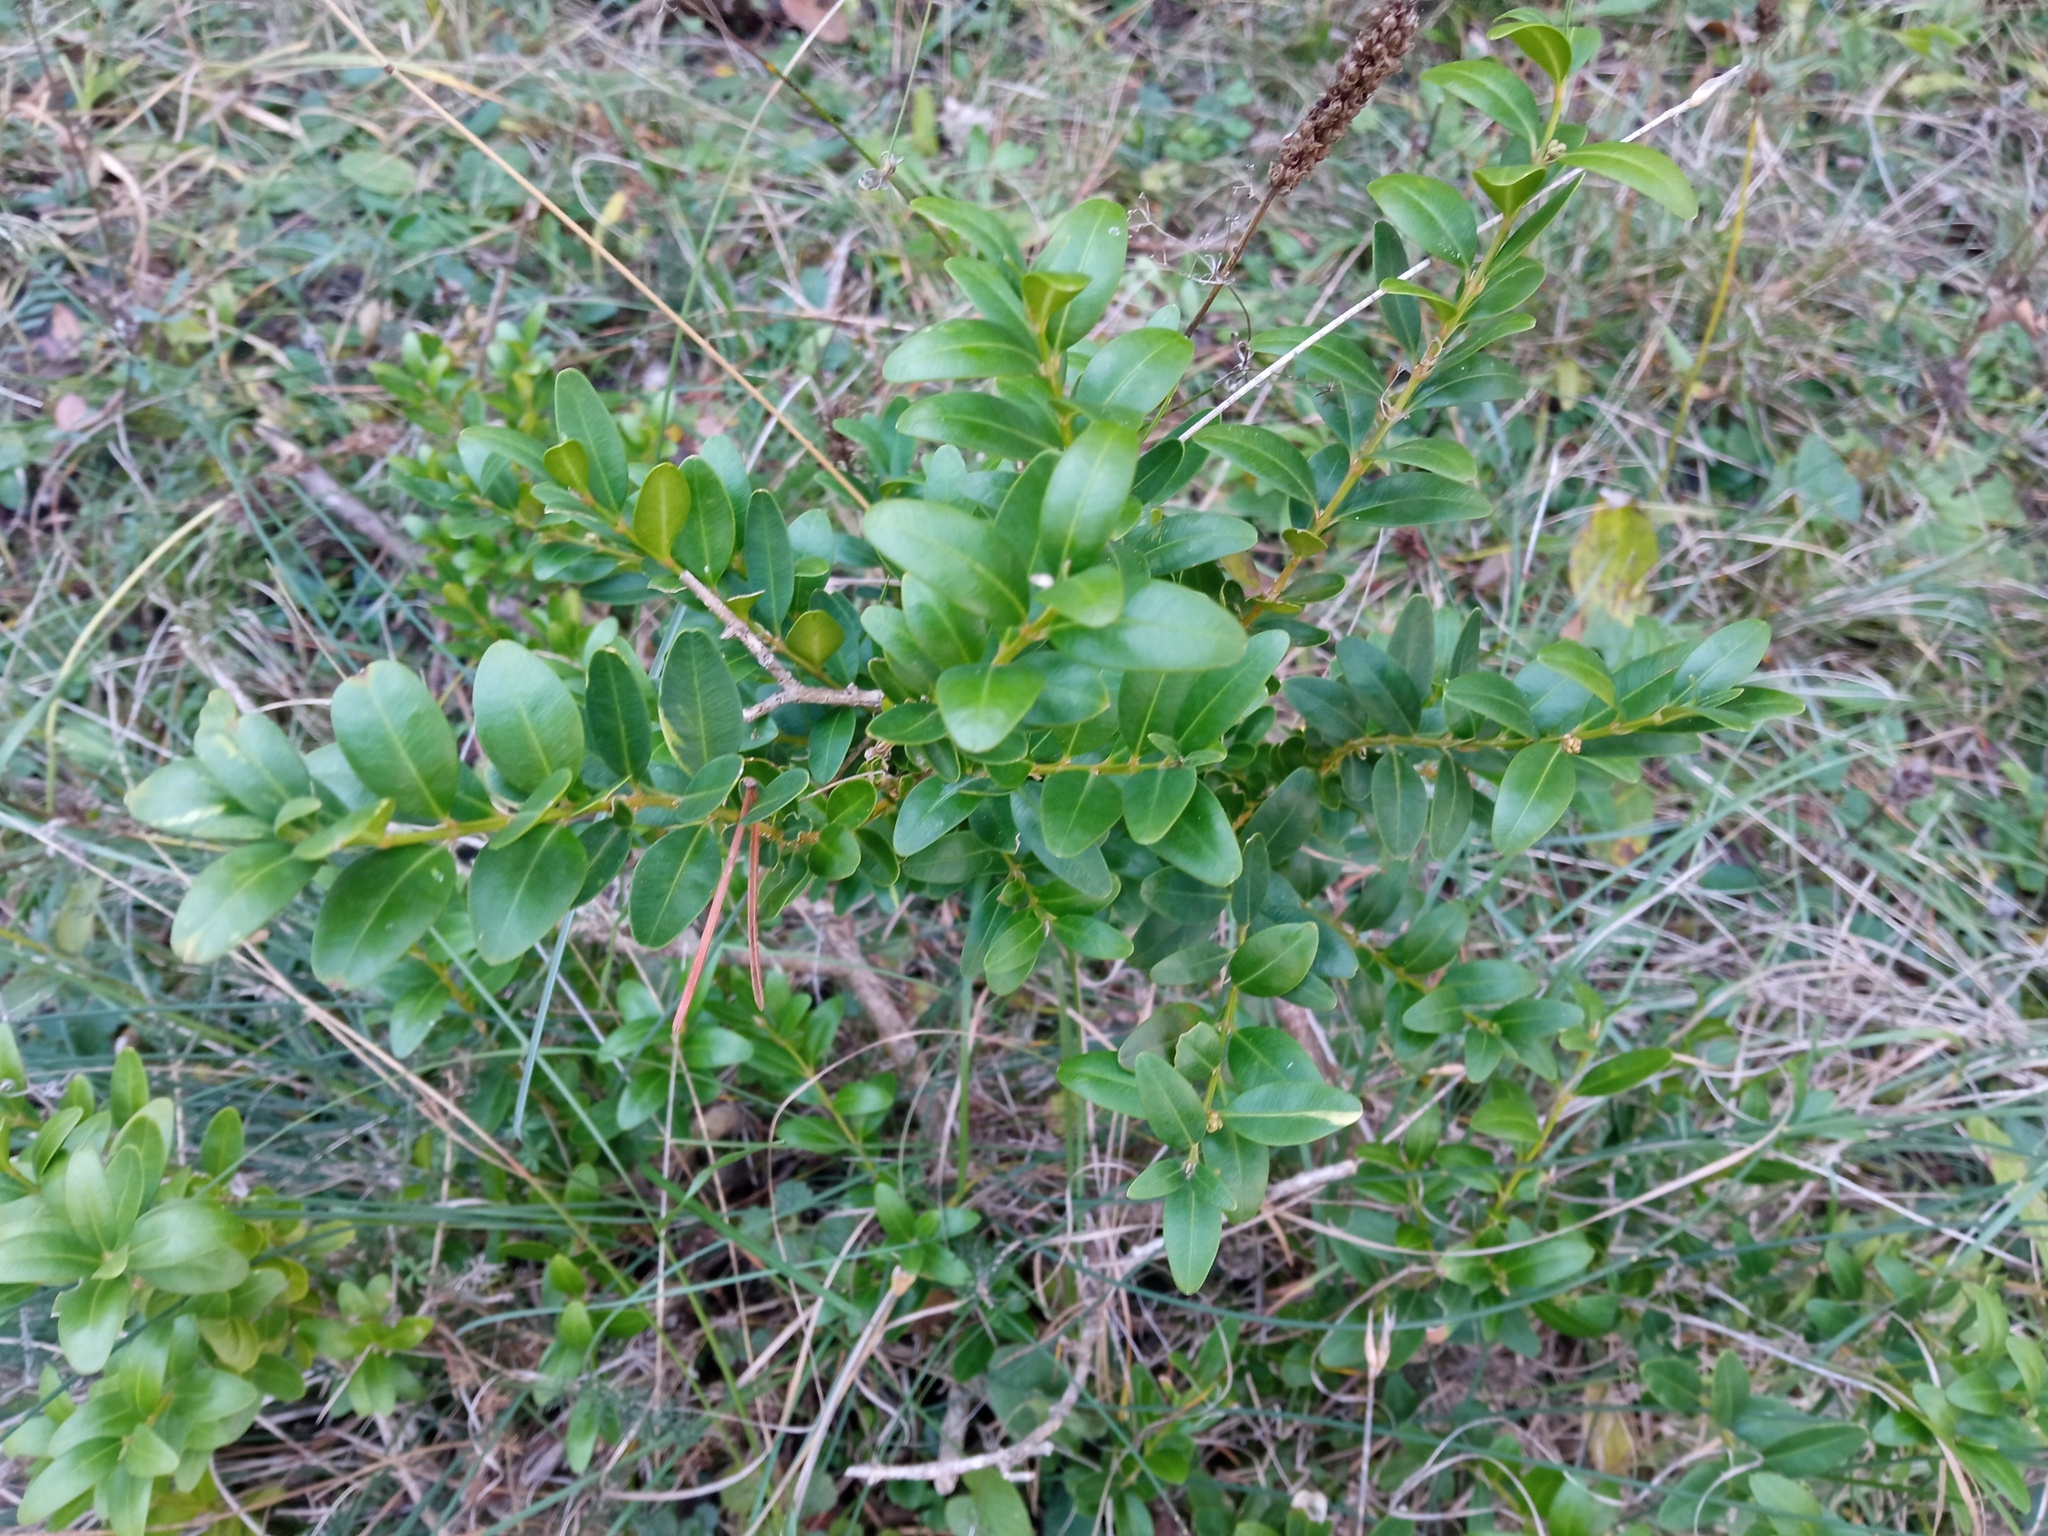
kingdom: Plantae
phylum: Tracheophyta
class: Magnoliopsida
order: Buxales
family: Buxaceae
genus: Buxus
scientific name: Buxus sempervirens
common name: Box
